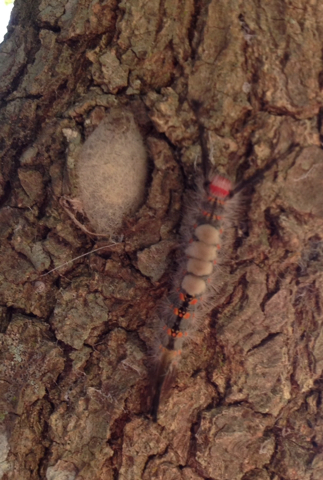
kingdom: Animalia
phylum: Arthropoda
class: Insecta
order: Lepidoptera
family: Erebidae
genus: Orgyia
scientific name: Orgyia detrita
